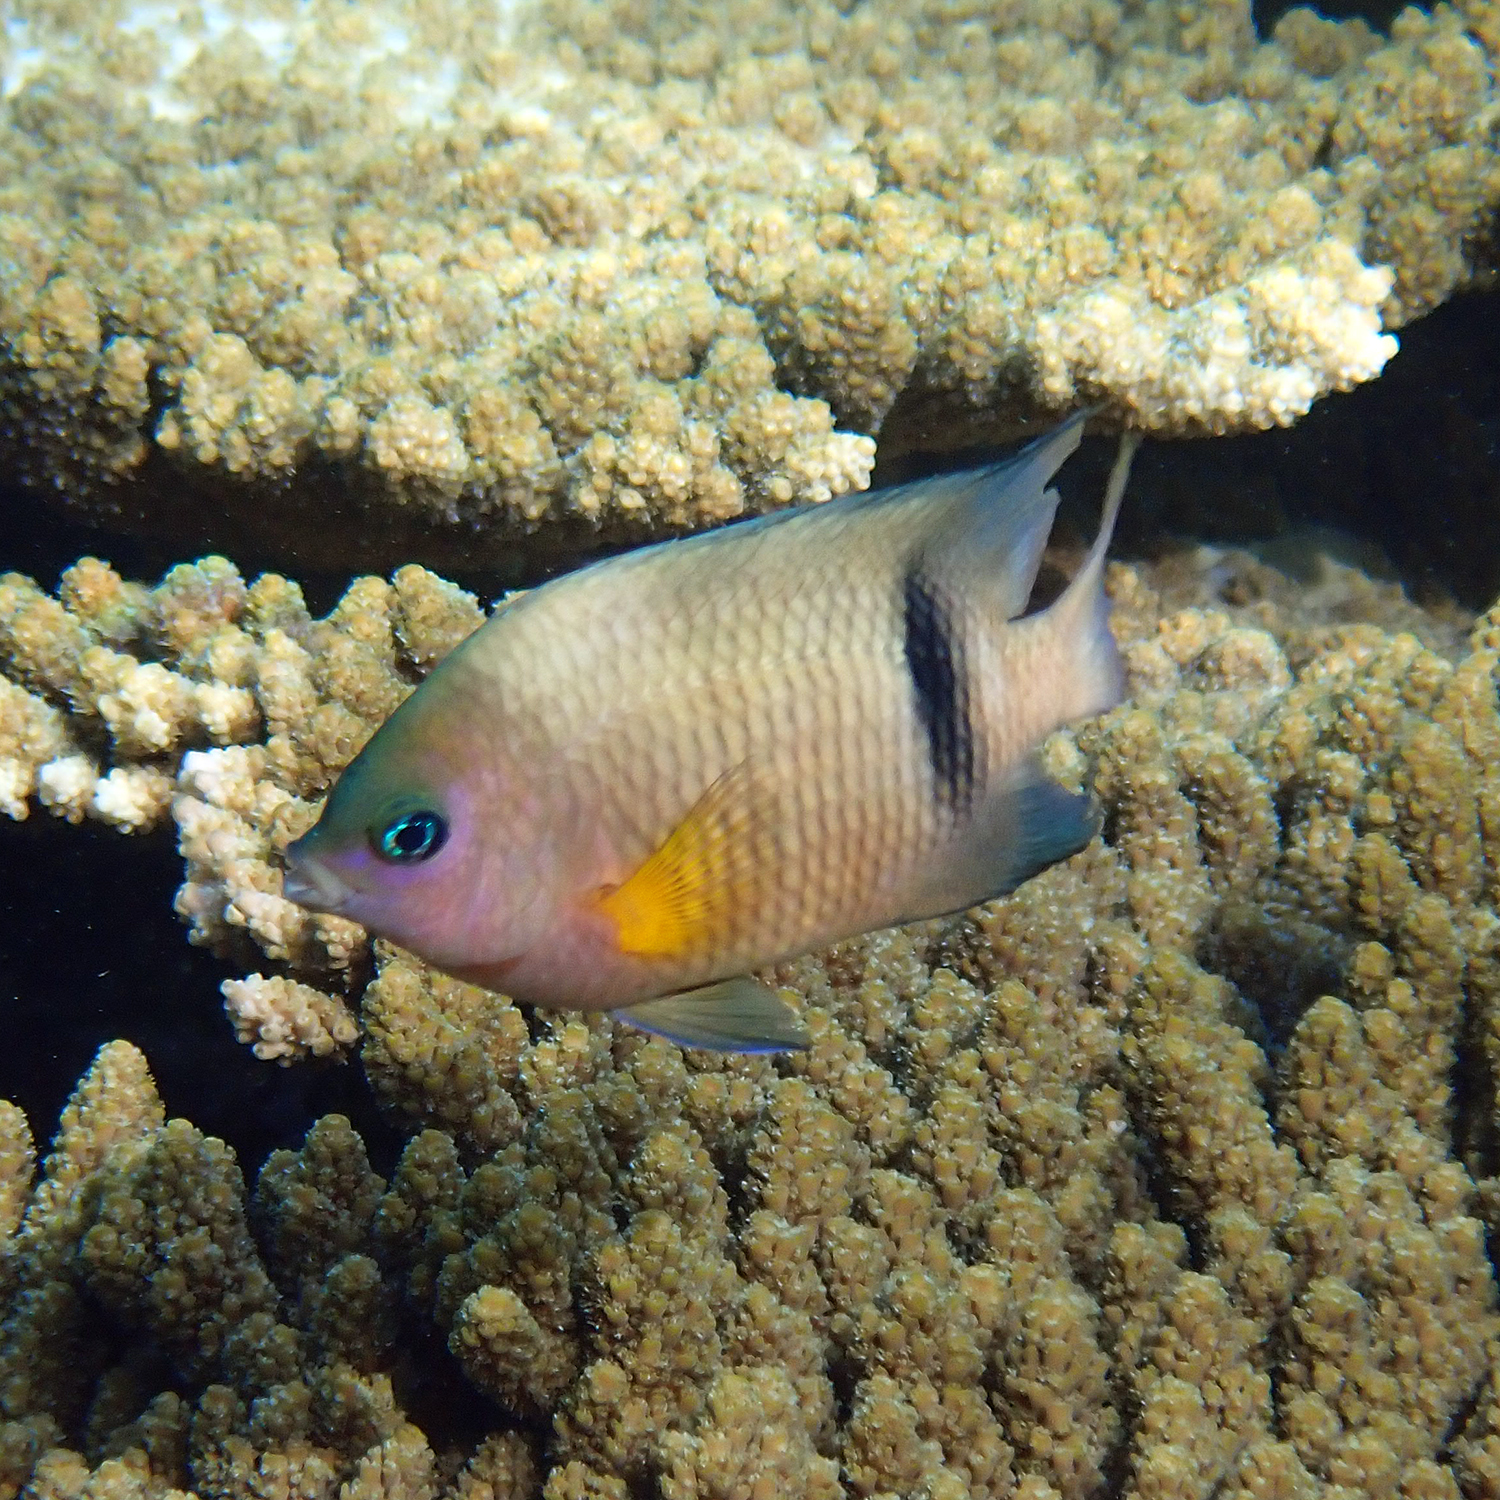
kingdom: Animalia
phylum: Chordata
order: Perciformes
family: Pomacentridae
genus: Plectroglyphidodon
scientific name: Plectroglyphidodon dickii
